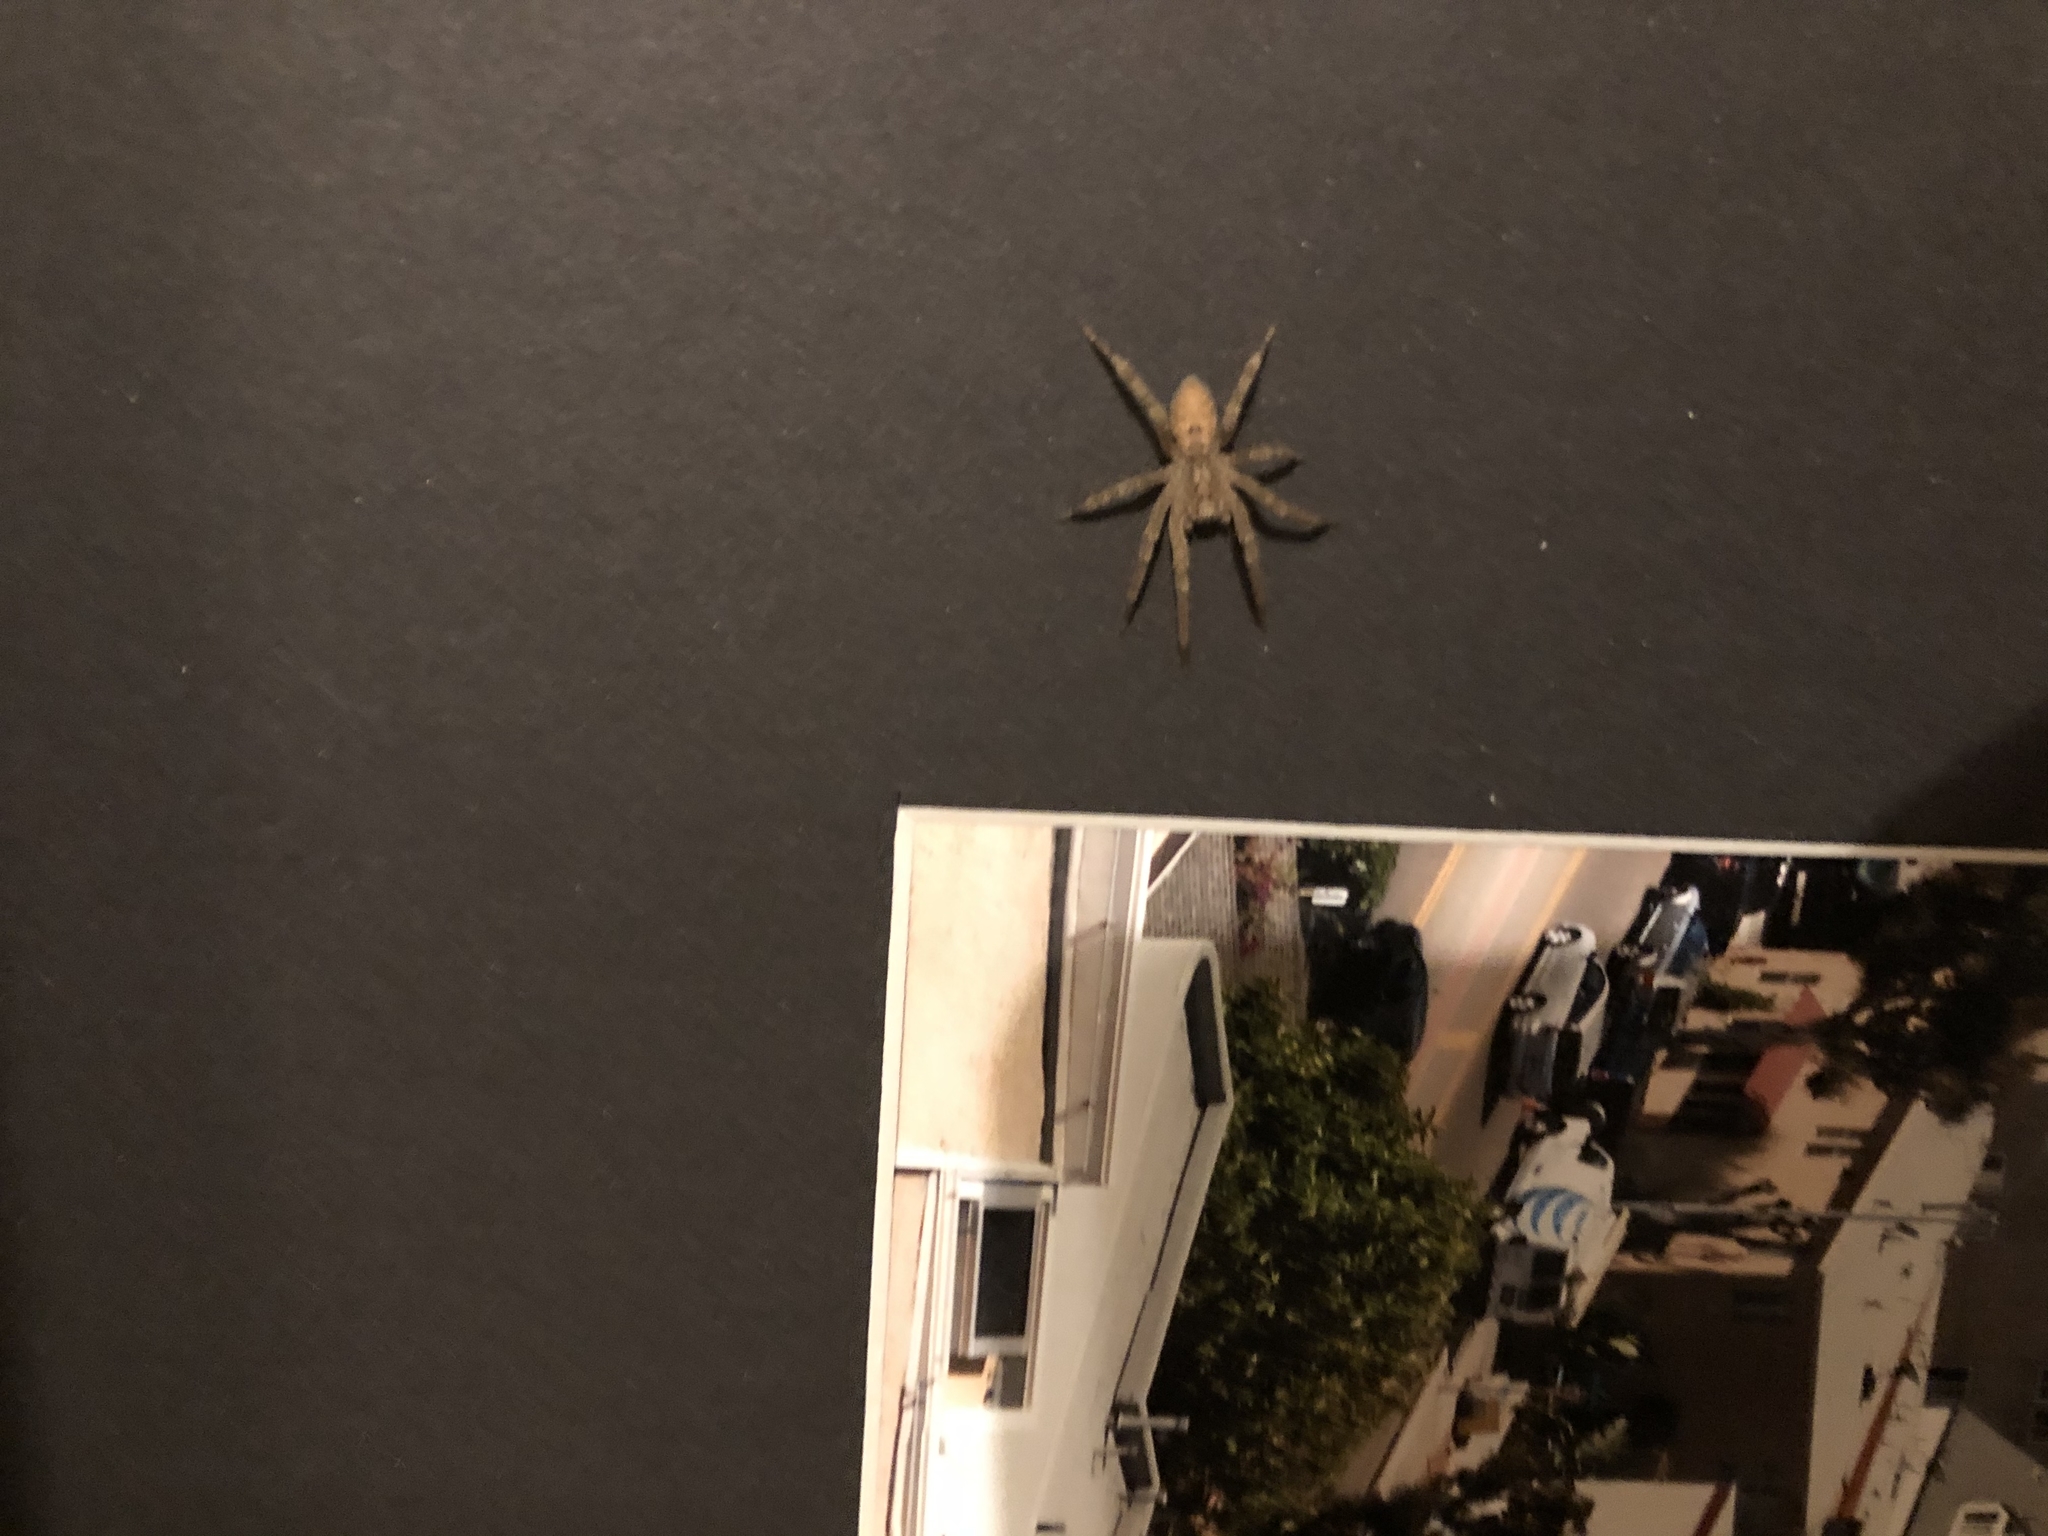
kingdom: Animalia
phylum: Arthropoda
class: Arachnida
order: Araneae
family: Zoropsidae
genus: Zoropsis
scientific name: Zoropsis spinimana
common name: Zoropsid spider
